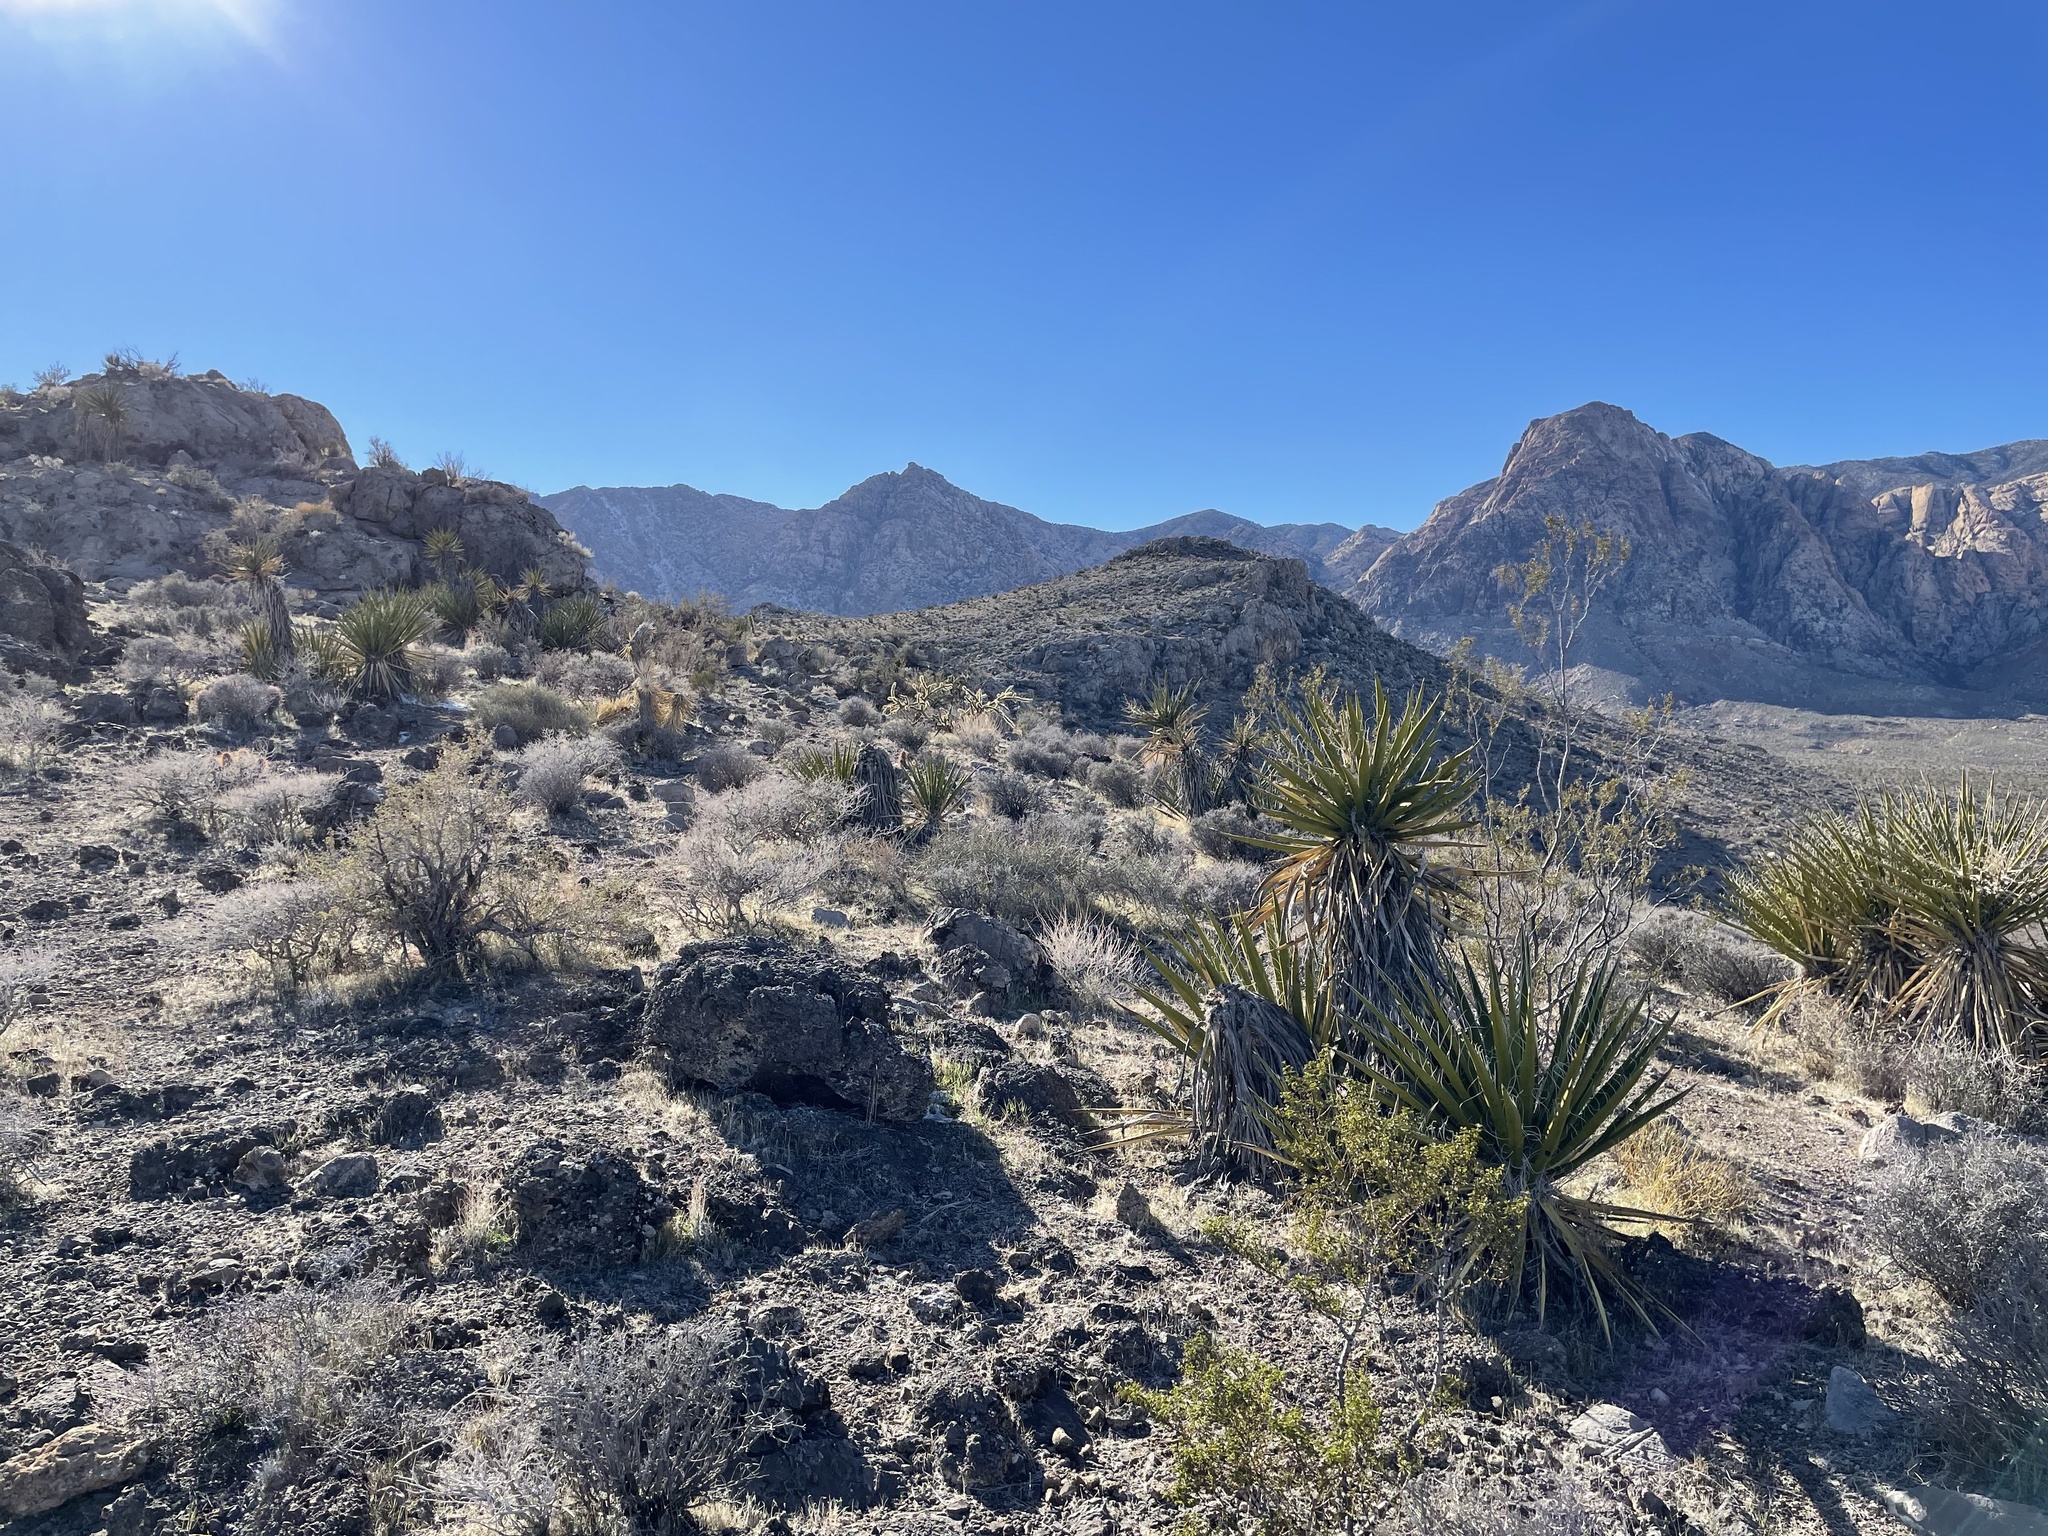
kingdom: Plantae
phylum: Tracheophyta
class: Liliopsida
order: Asparagales
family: Asparagaceae
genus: Yucca
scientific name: Yucca schidigera
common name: Mojave yucca
